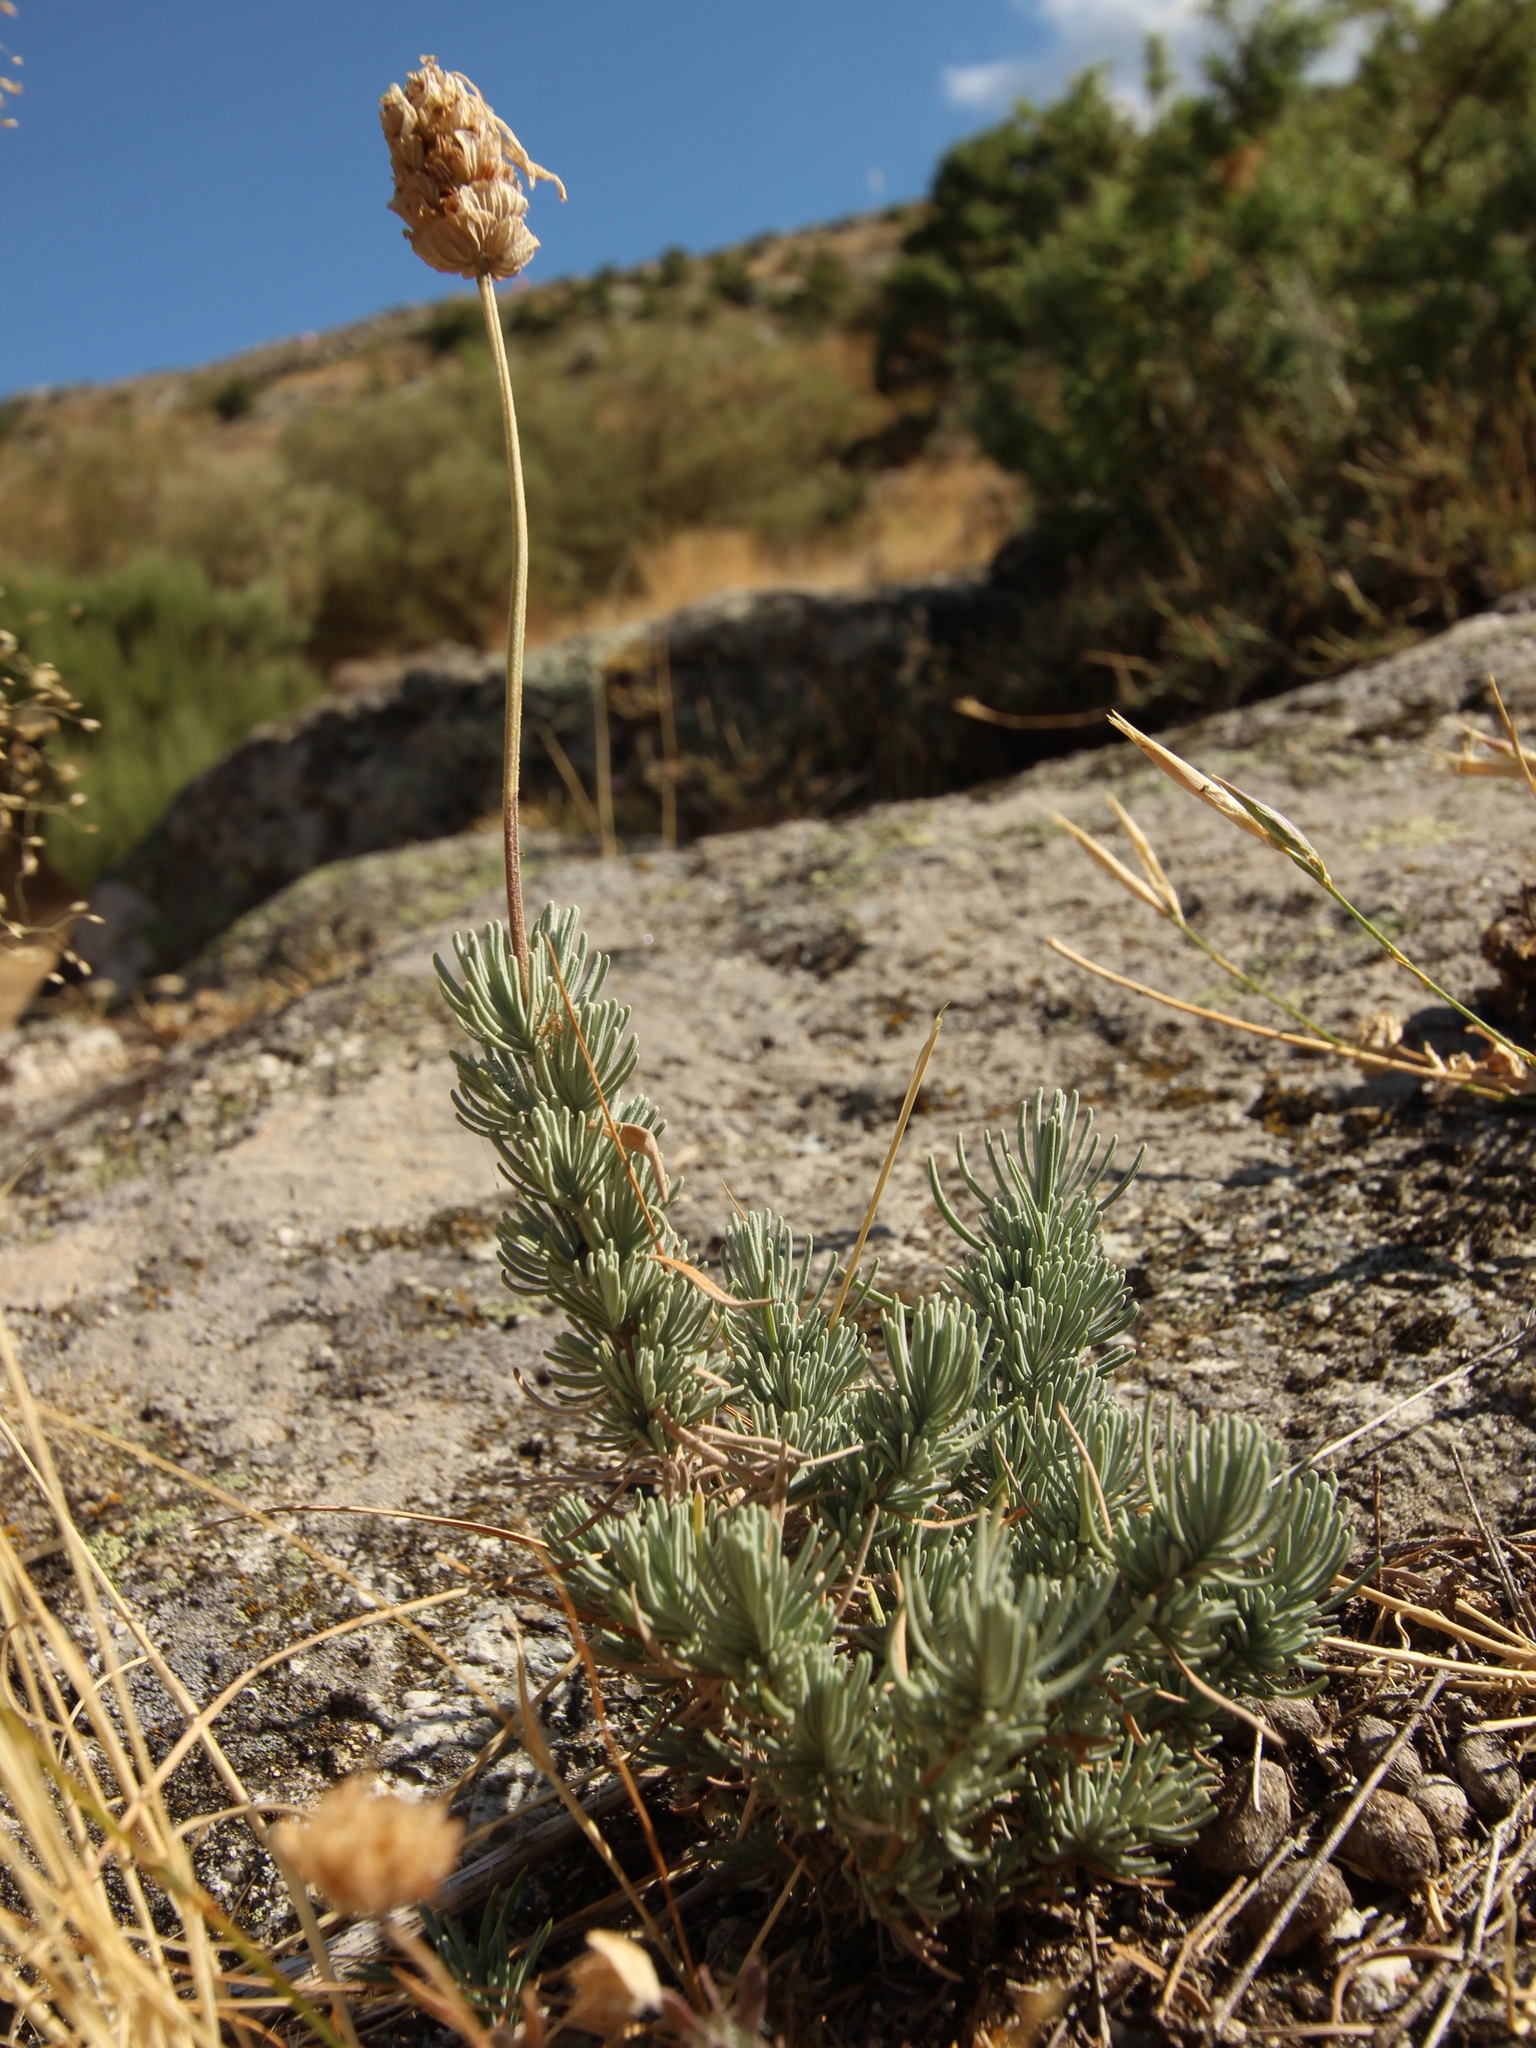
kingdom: Plantae
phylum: Tracheophyta
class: Magnoliopsida
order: Lamiales
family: Lamiaceae
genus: Lavandula
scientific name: Lavandula pedunculata
